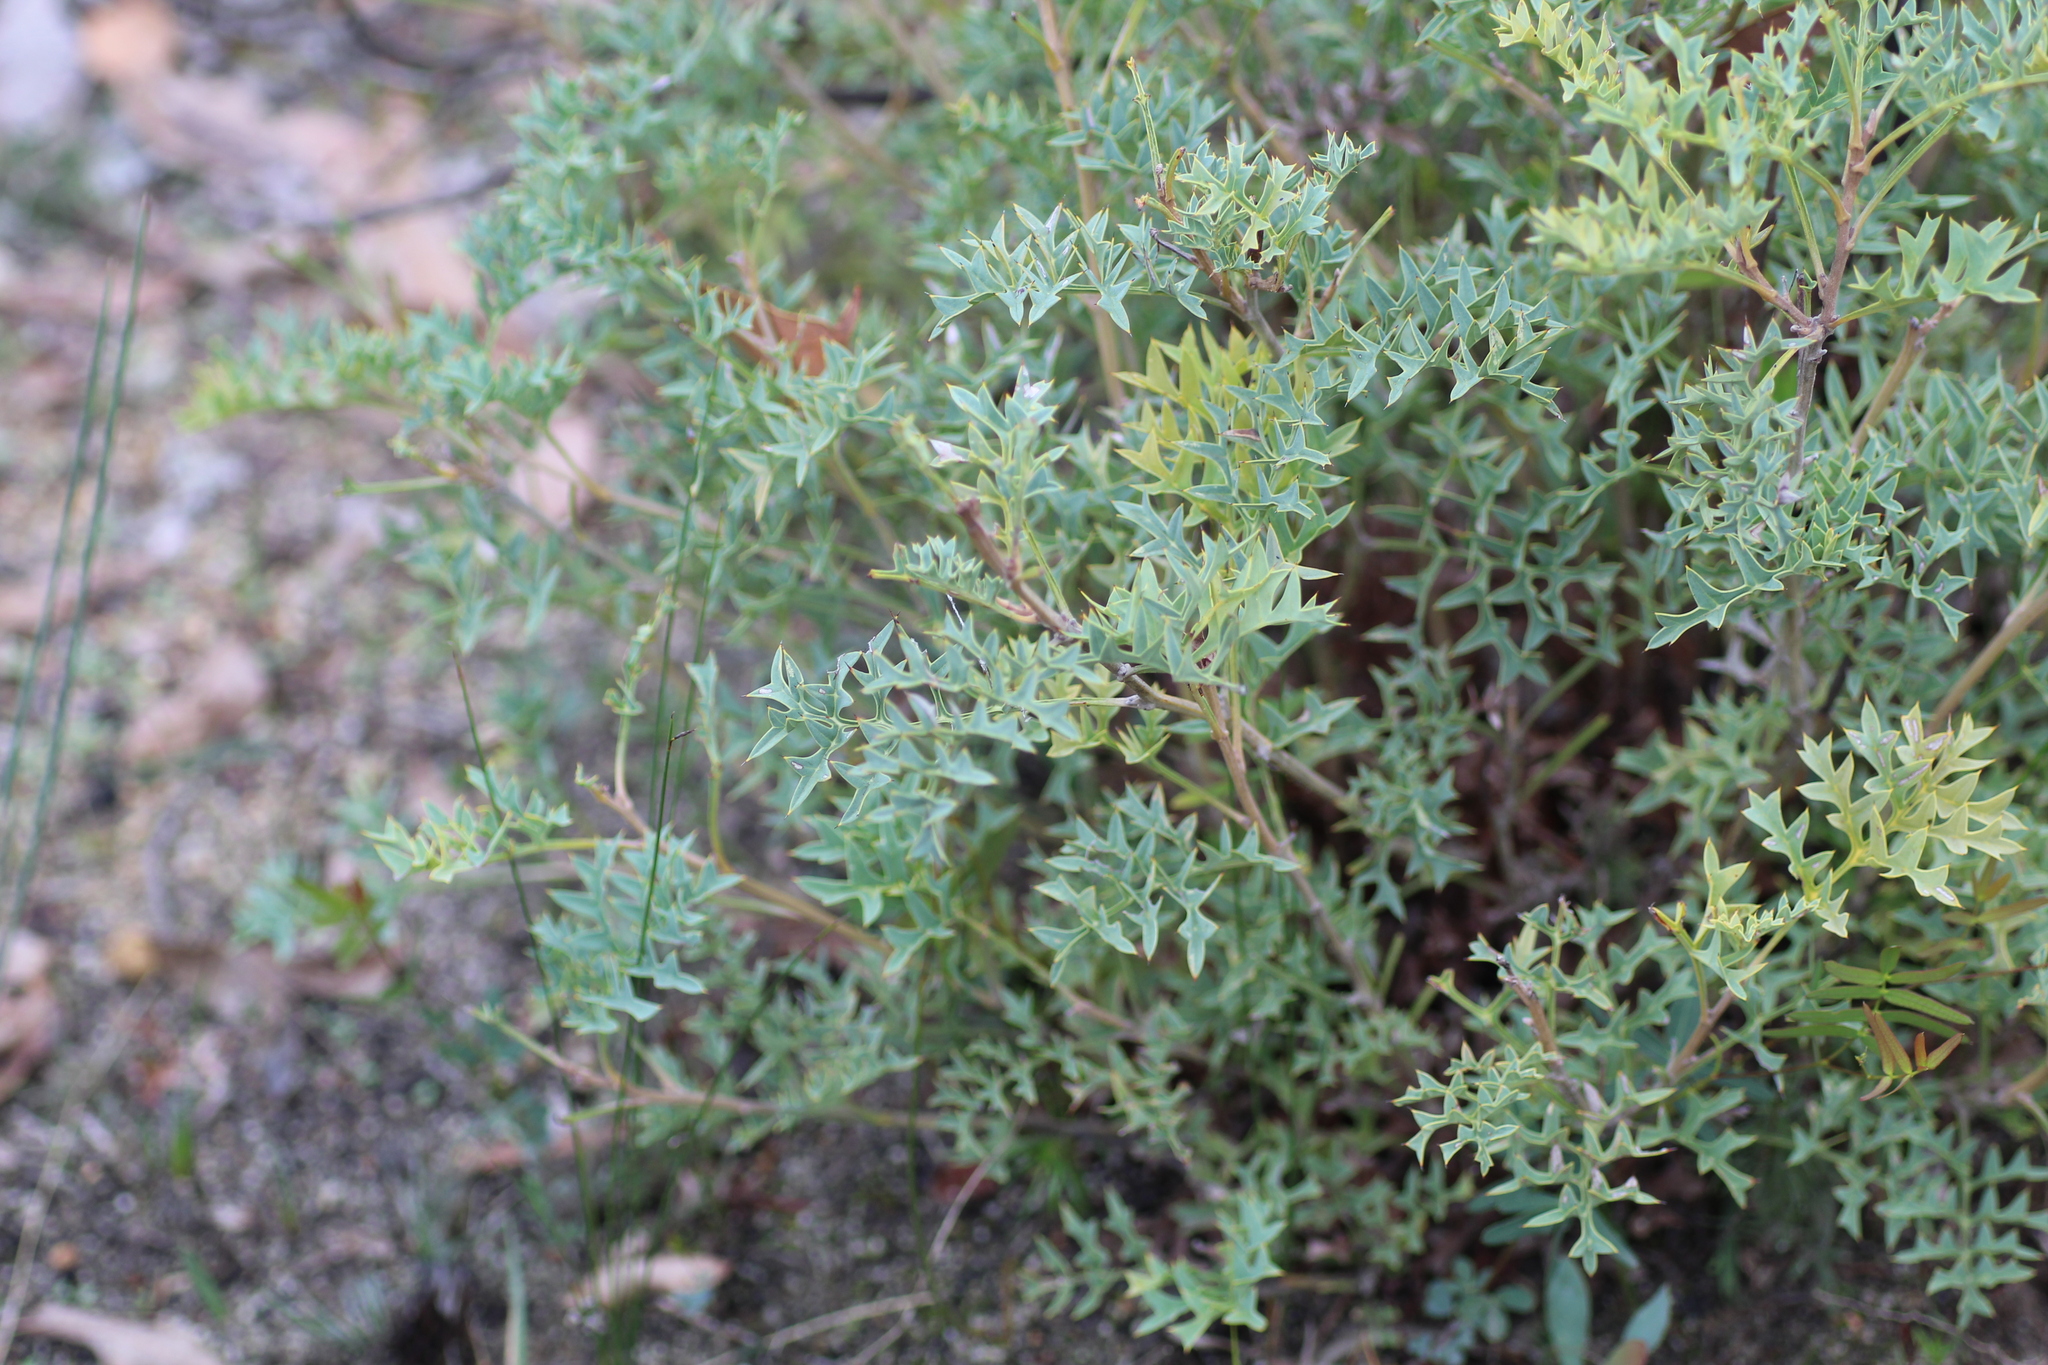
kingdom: Plantae
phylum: Tracheophyta
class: Magnoliopsida
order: Proteales
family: Proteaceae
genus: Grevillea
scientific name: Grevillea bipinnatifida
